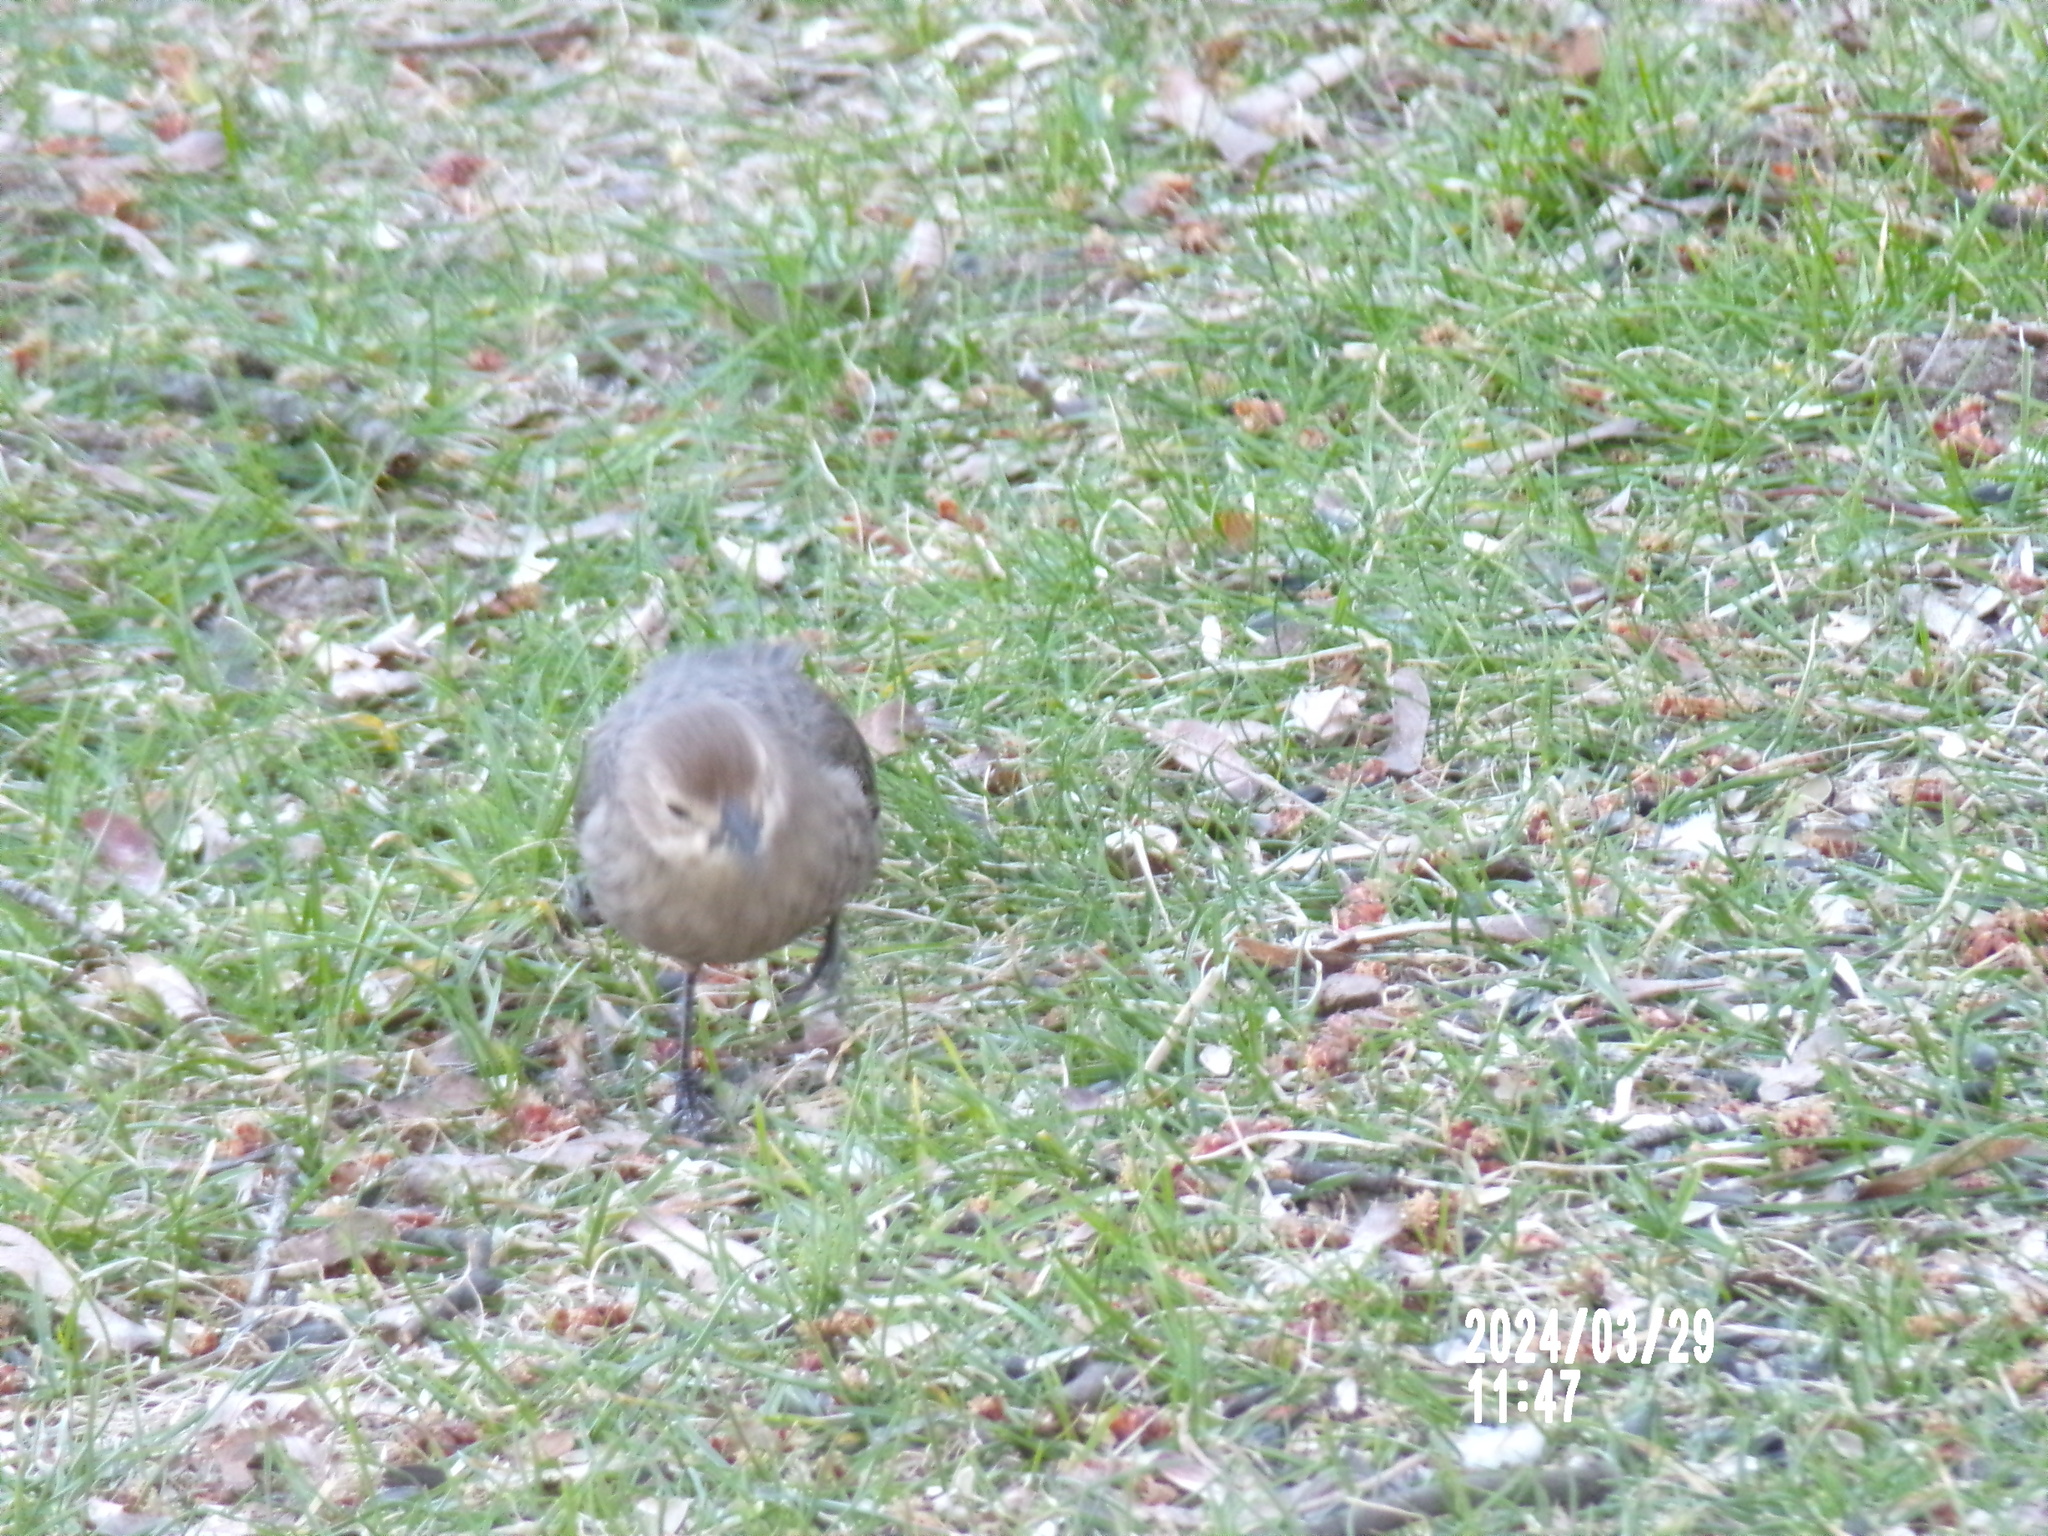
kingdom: Animalia
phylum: Chordata
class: Aves
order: Passeriformes
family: Icteridae
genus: Molothrus
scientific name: Molothrus ater
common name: Brown-headed cowbird
